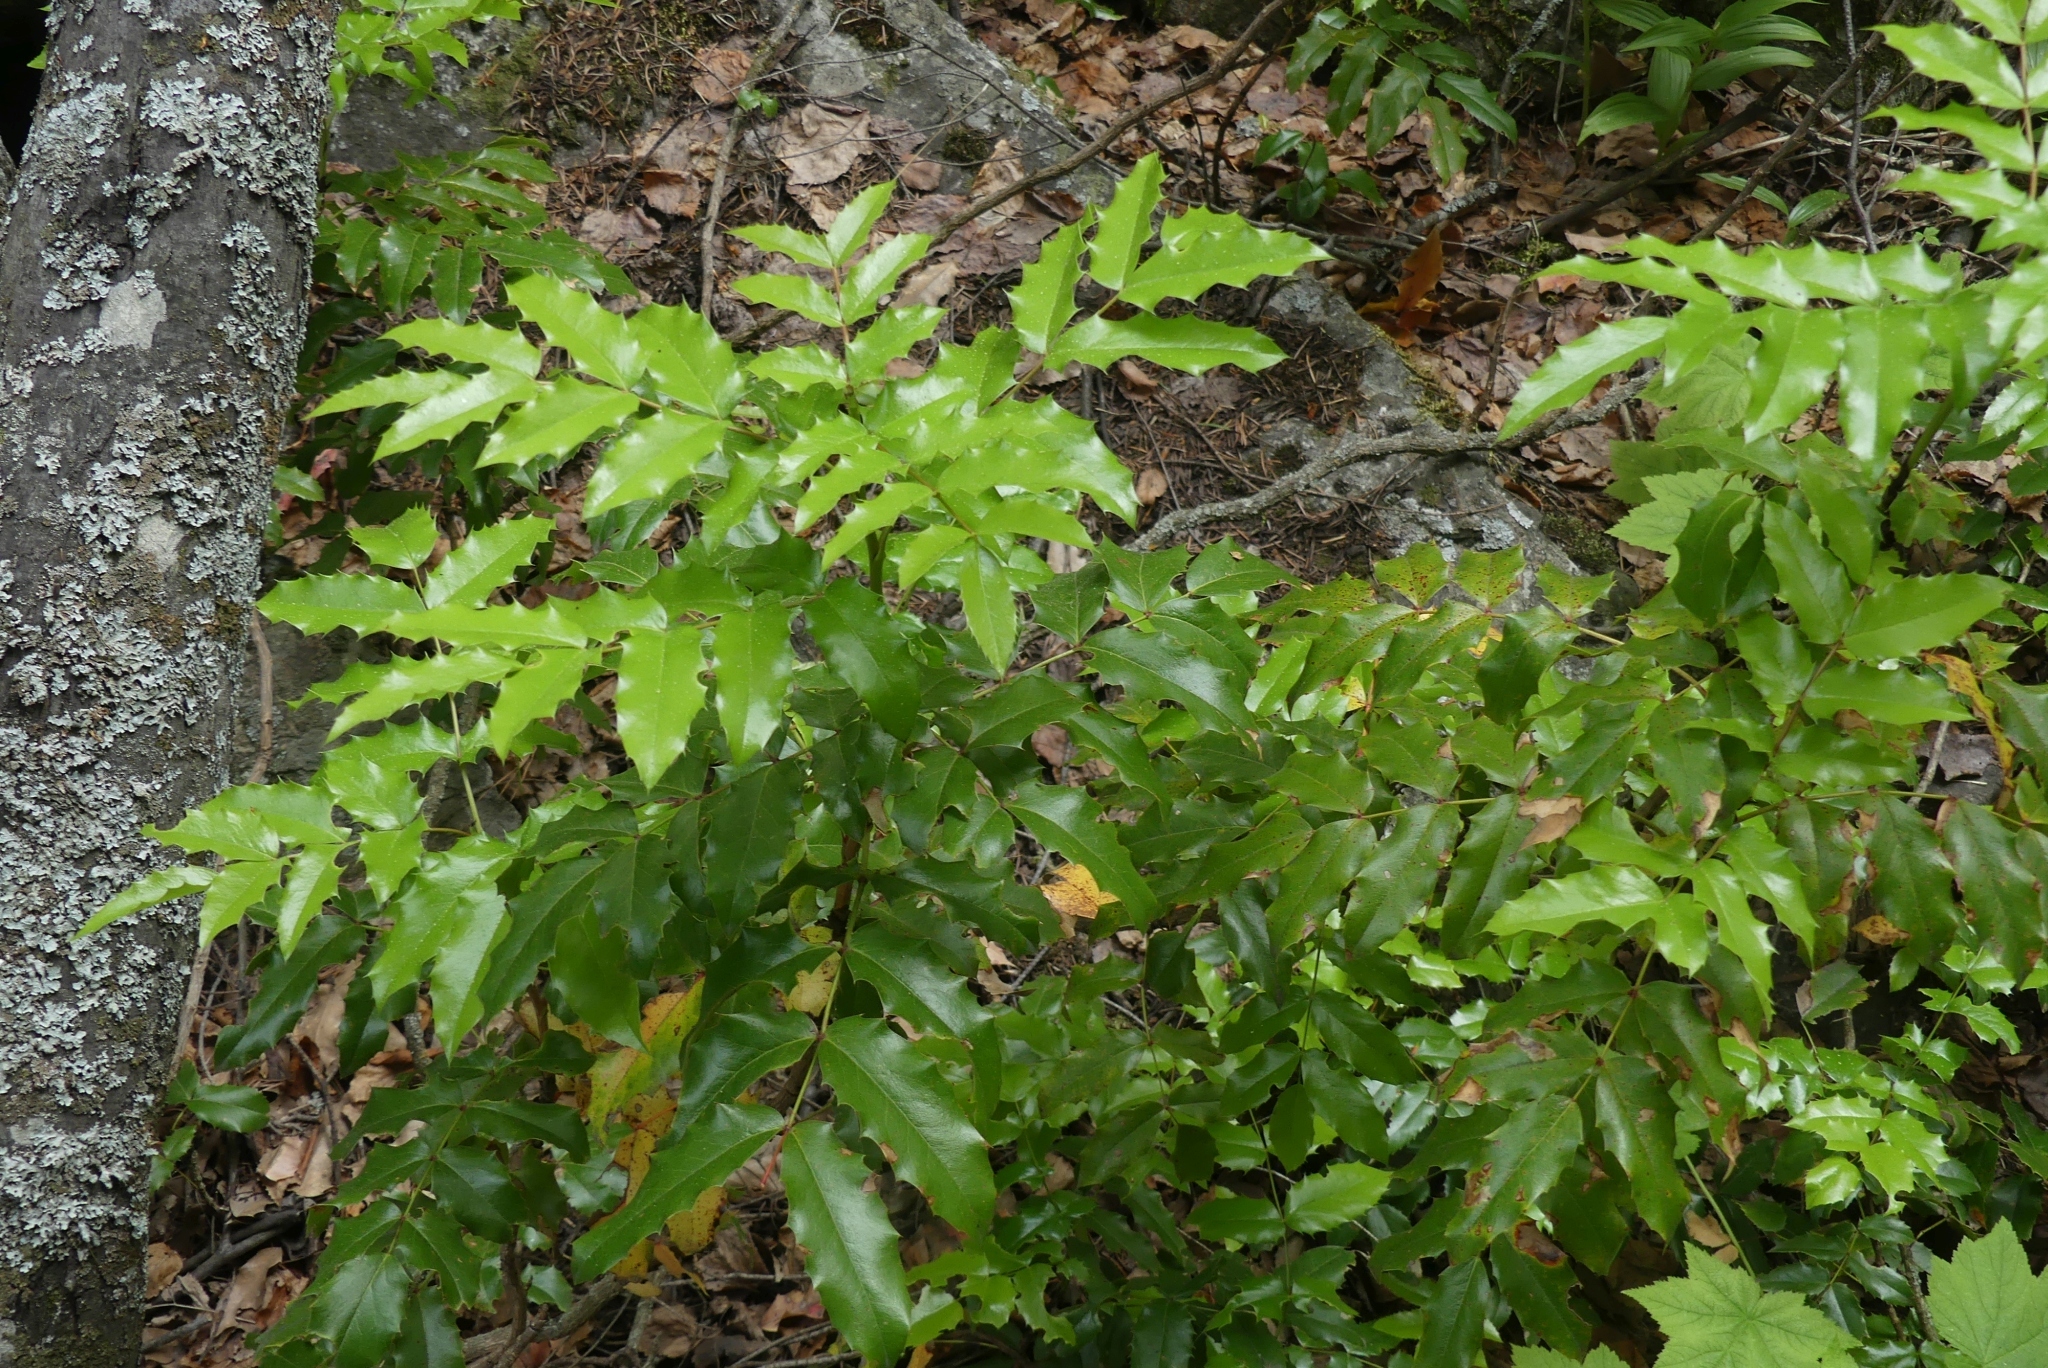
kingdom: Plantae
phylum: Tracheophyta
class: Magnoliopsida
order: Ranunculales
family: Berberidaceae
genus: Mahonia
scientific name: Mahonia aquifolium
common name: Oregon-grape
